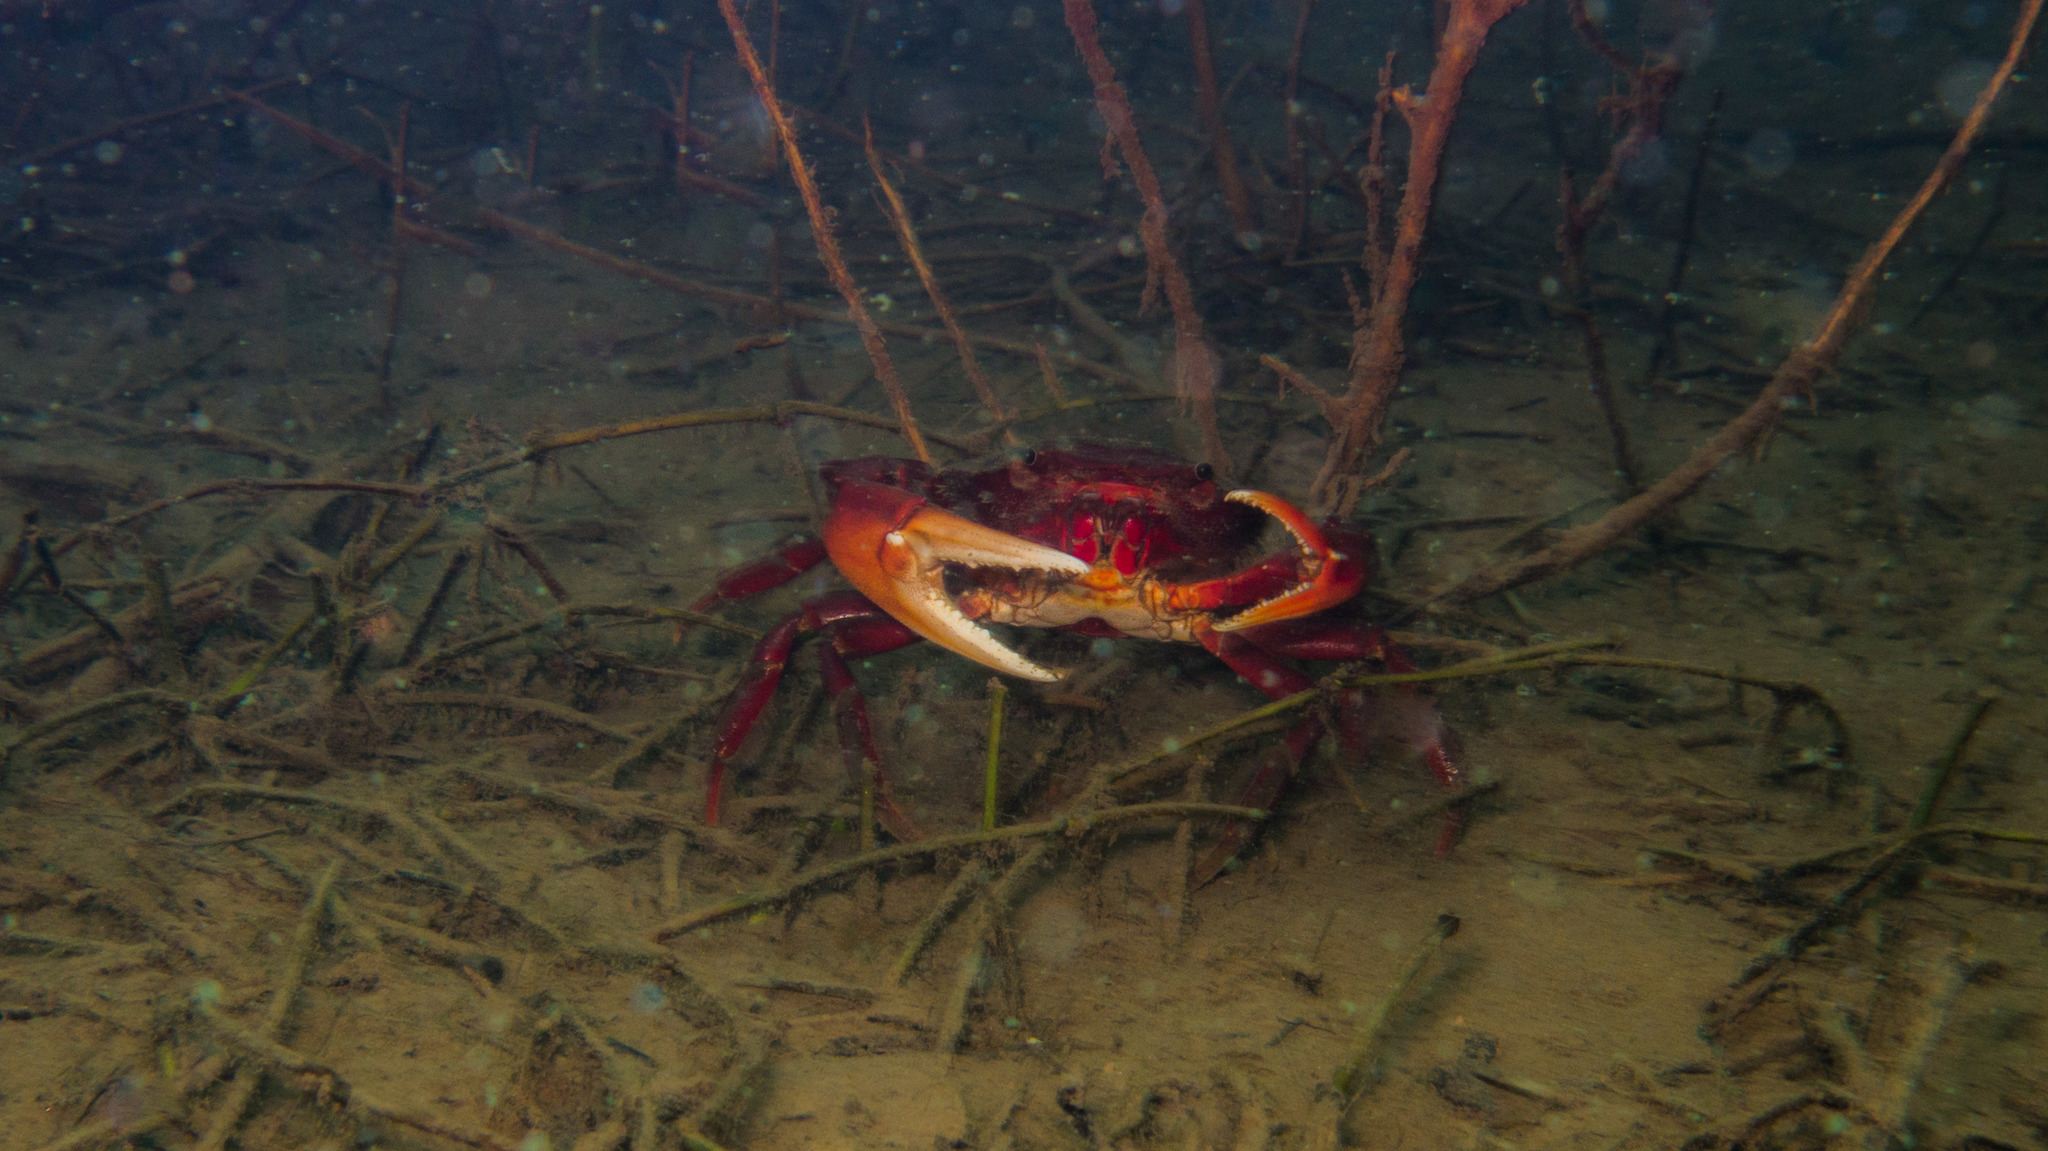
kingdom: Animalia
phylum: Arthropoda
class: Malacostraca
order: Decapoda
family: Trichodactylidae
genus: Dilocarcinus
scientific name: Dilocarcinus pagei
